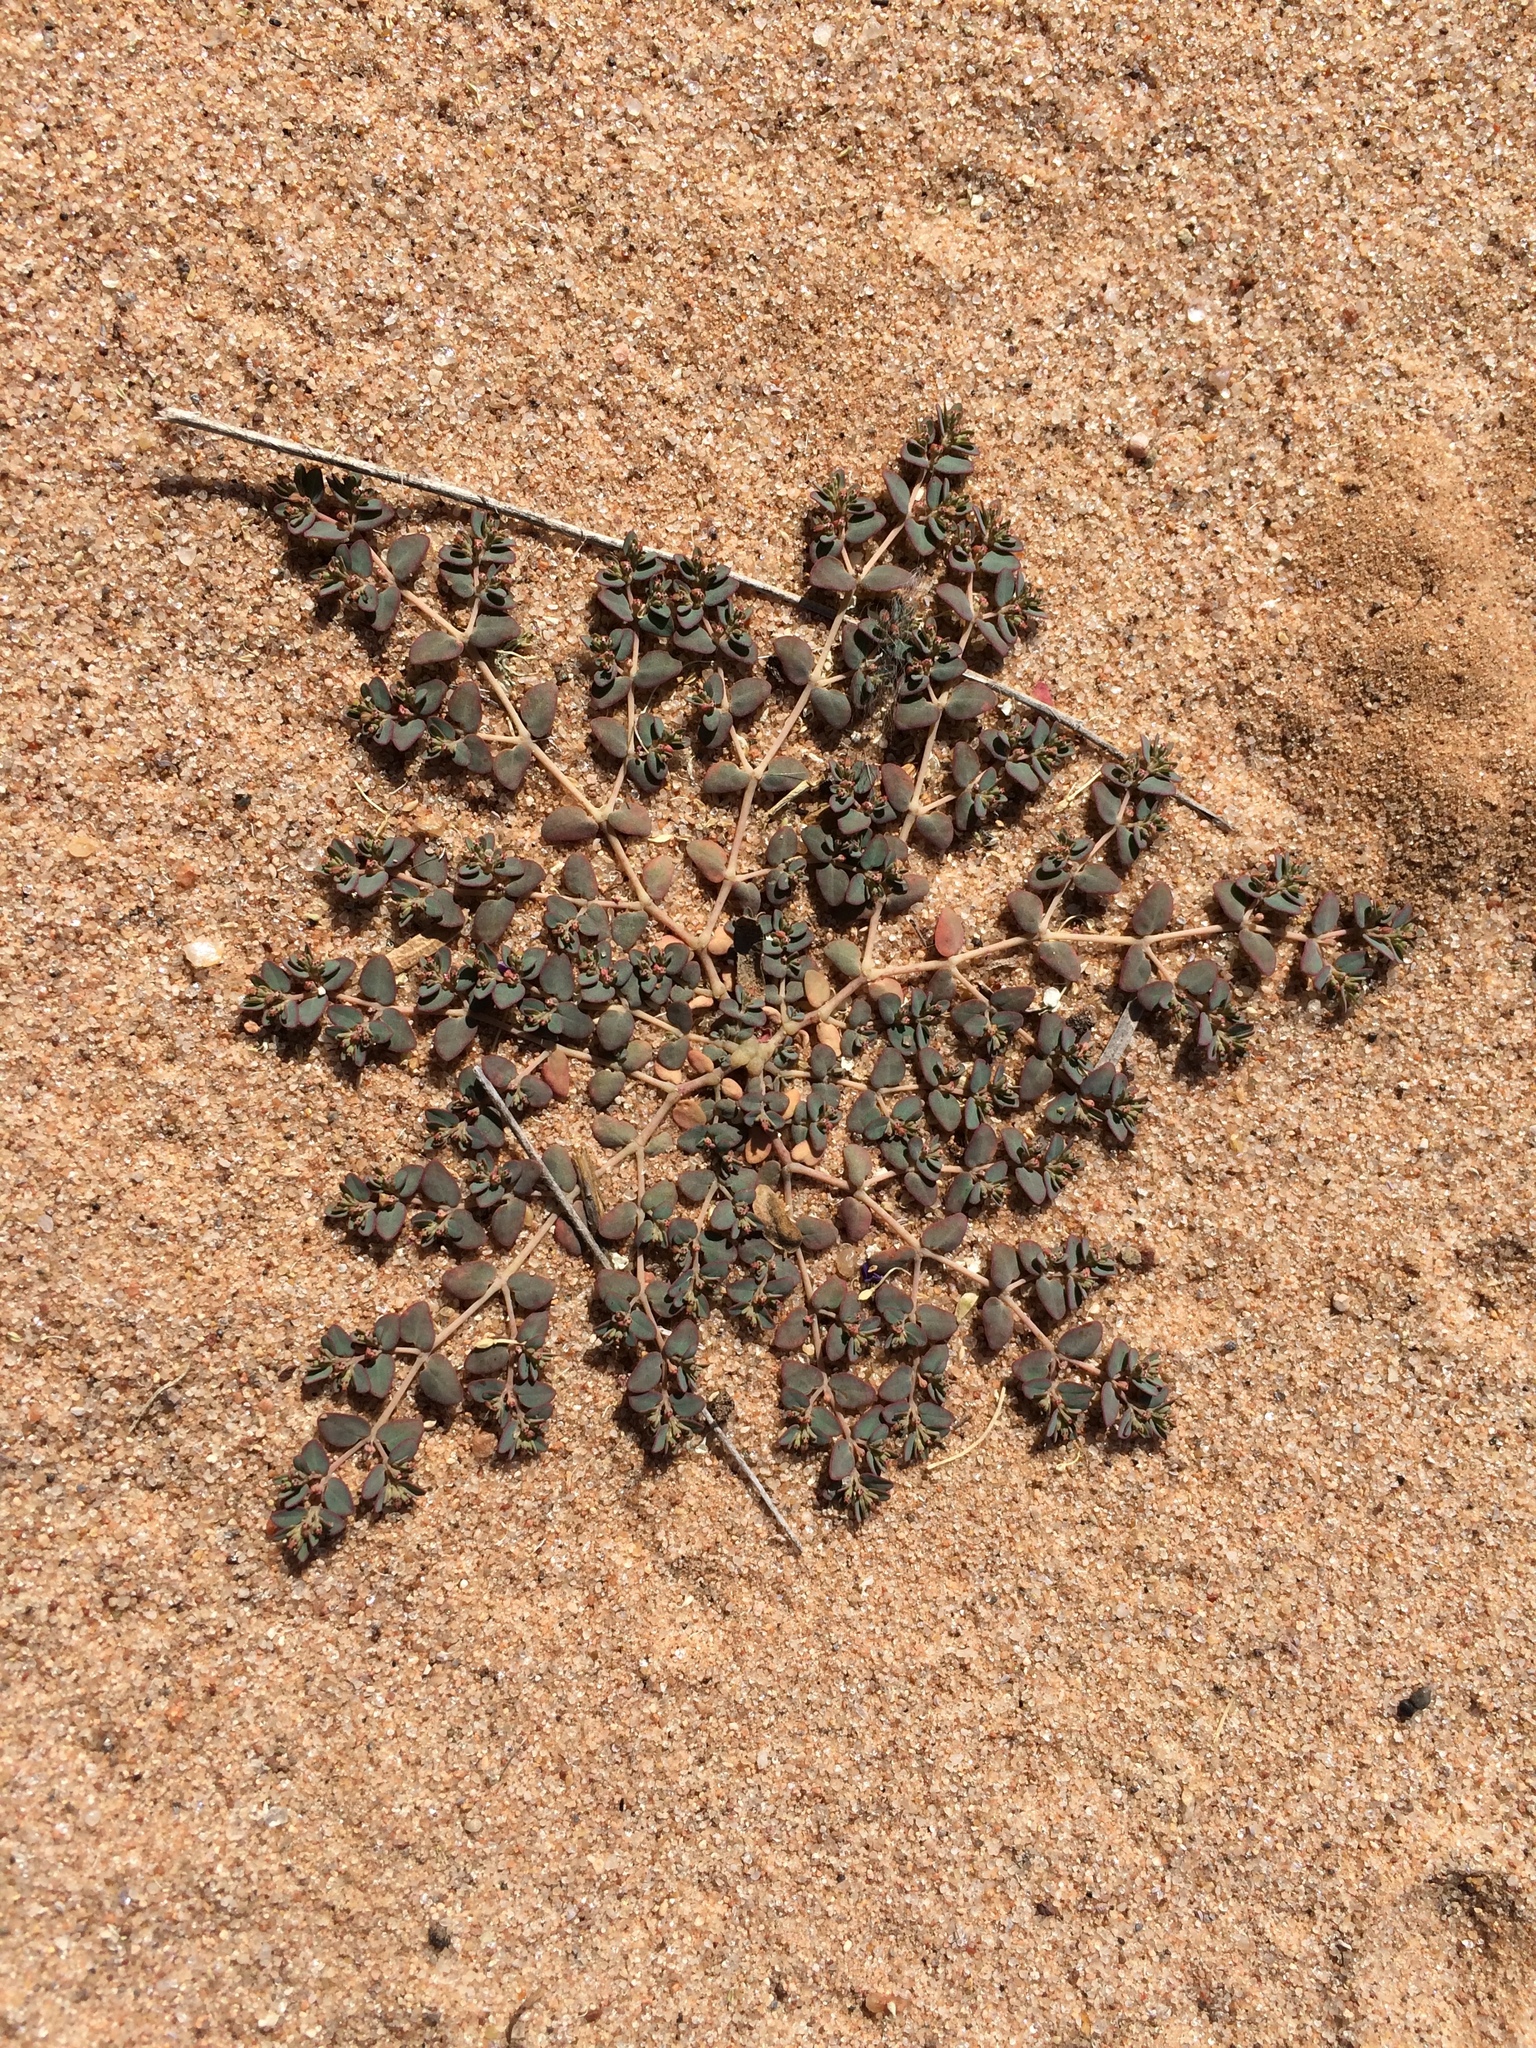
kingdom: Plantae
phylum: Tracheophyta
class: Magnoliopsida
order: Malpighiales
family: Euphorbiaceae
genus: Euphorbia
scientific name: Euphorbia micromera
